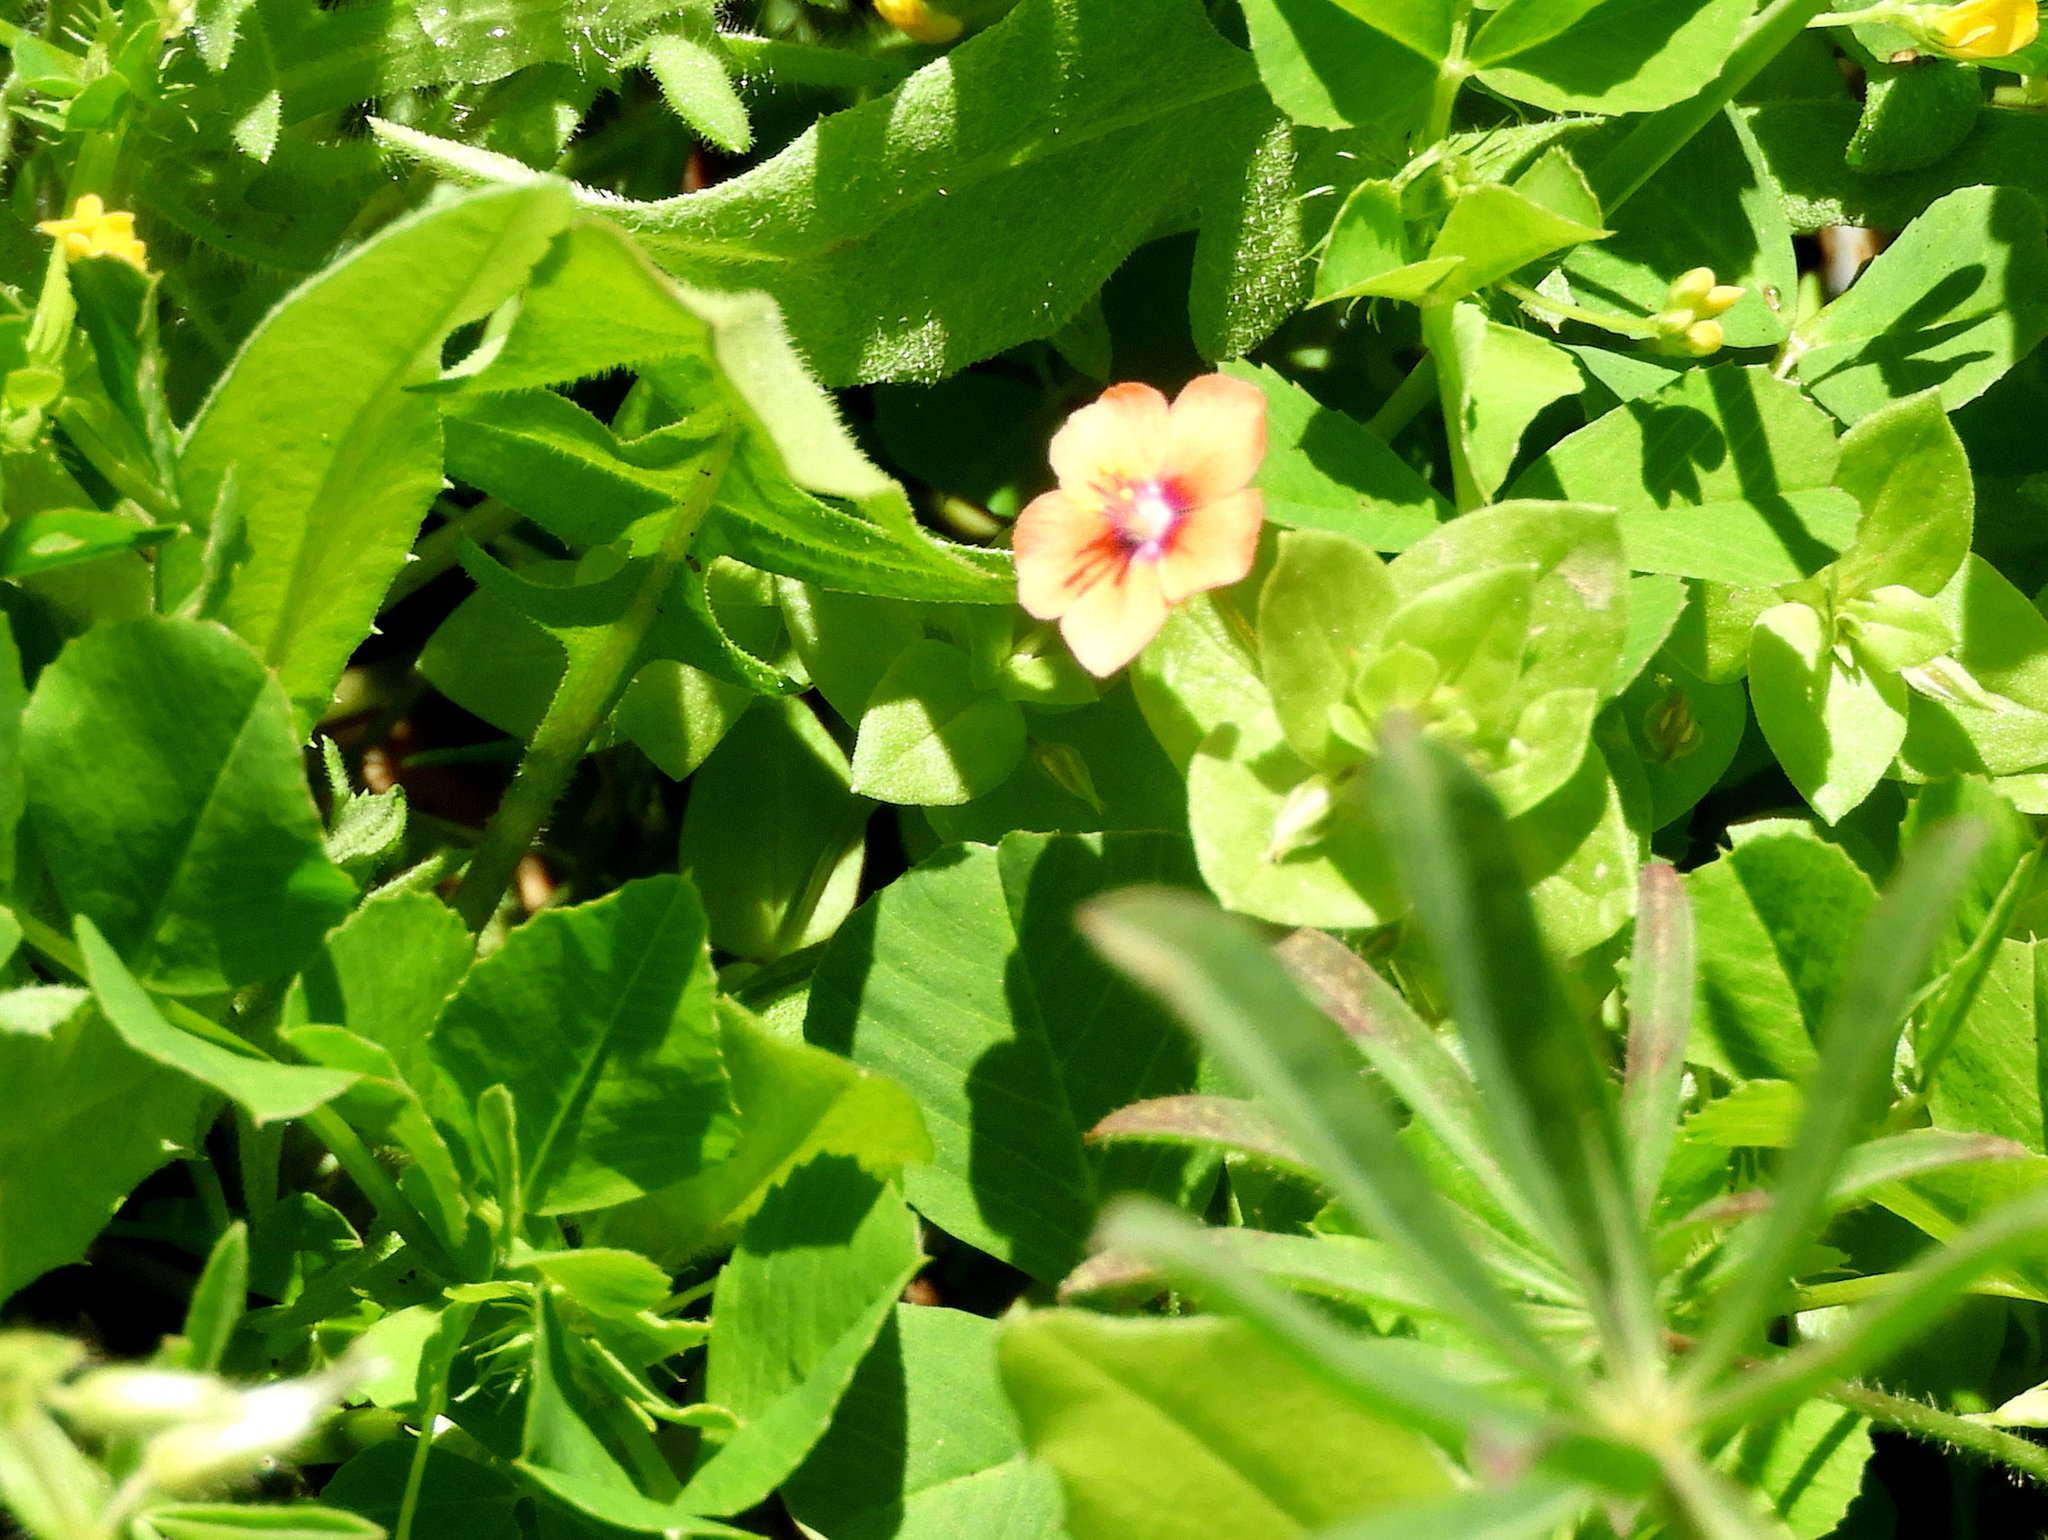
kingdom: Plantae
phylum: Tracheophyta
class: Magnoliopsida
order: Ericales
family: Primulaceae
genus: Lysimachia
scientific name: Lysimachia arvensis
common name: Scarlet pimpernel
